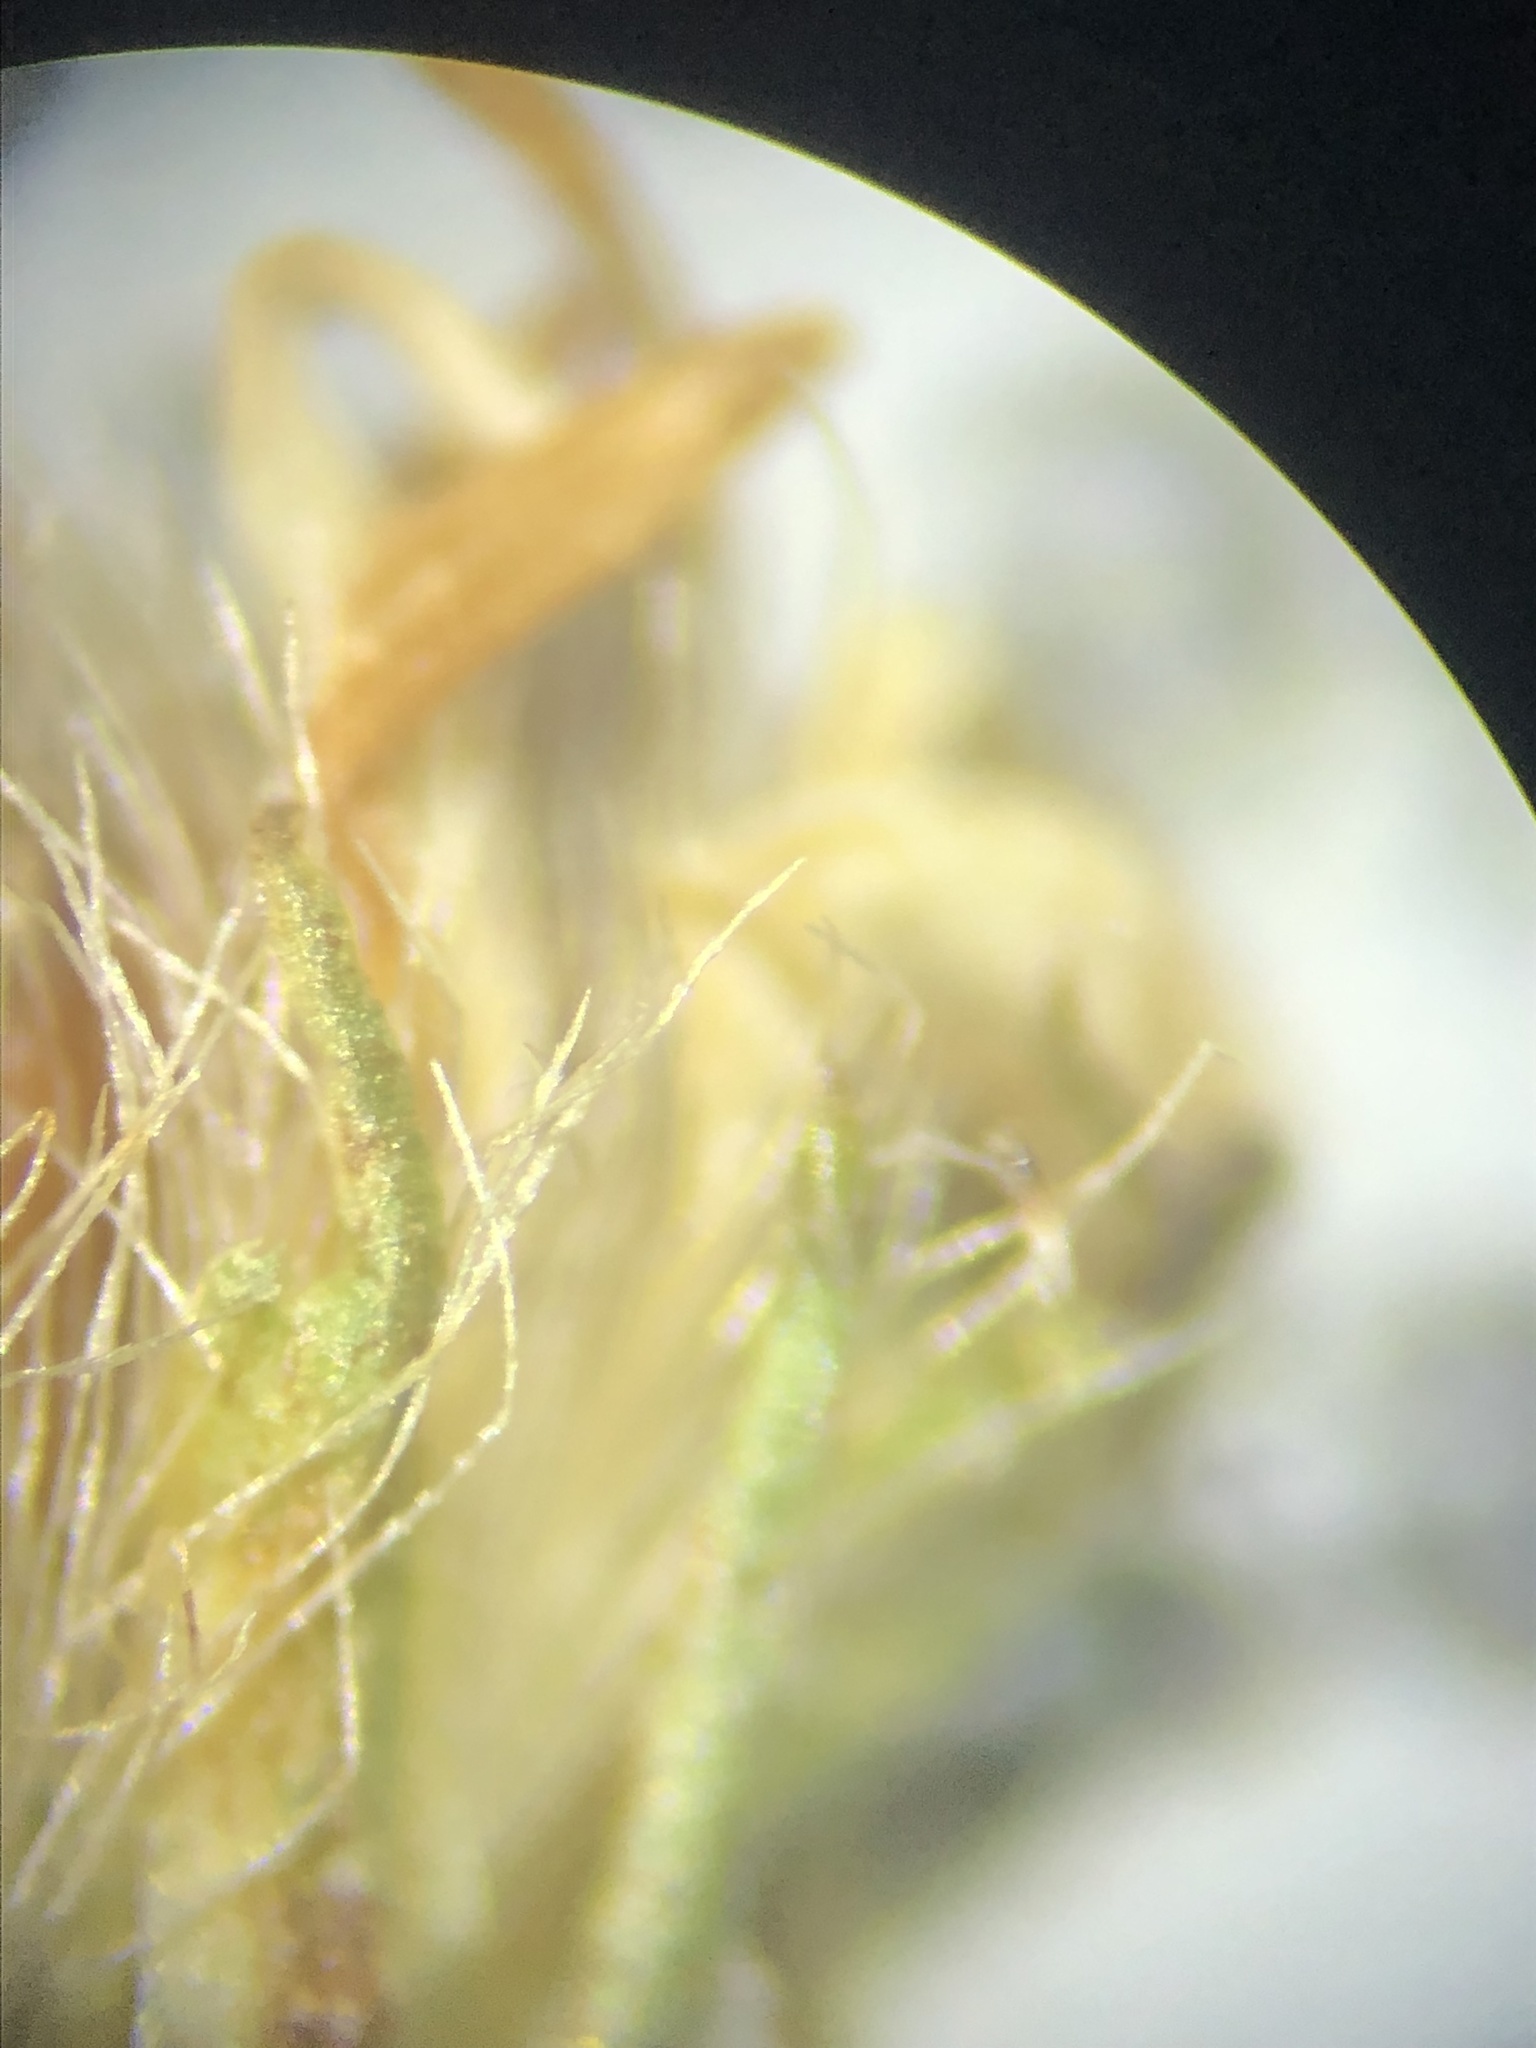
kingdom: Plantae
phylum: Tracheophyta
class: Magnoliopsida
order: Asterales
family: Asteraceae
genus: Symphyotrichum
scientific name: Symphyotrichum pilosum
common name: Awl aster
